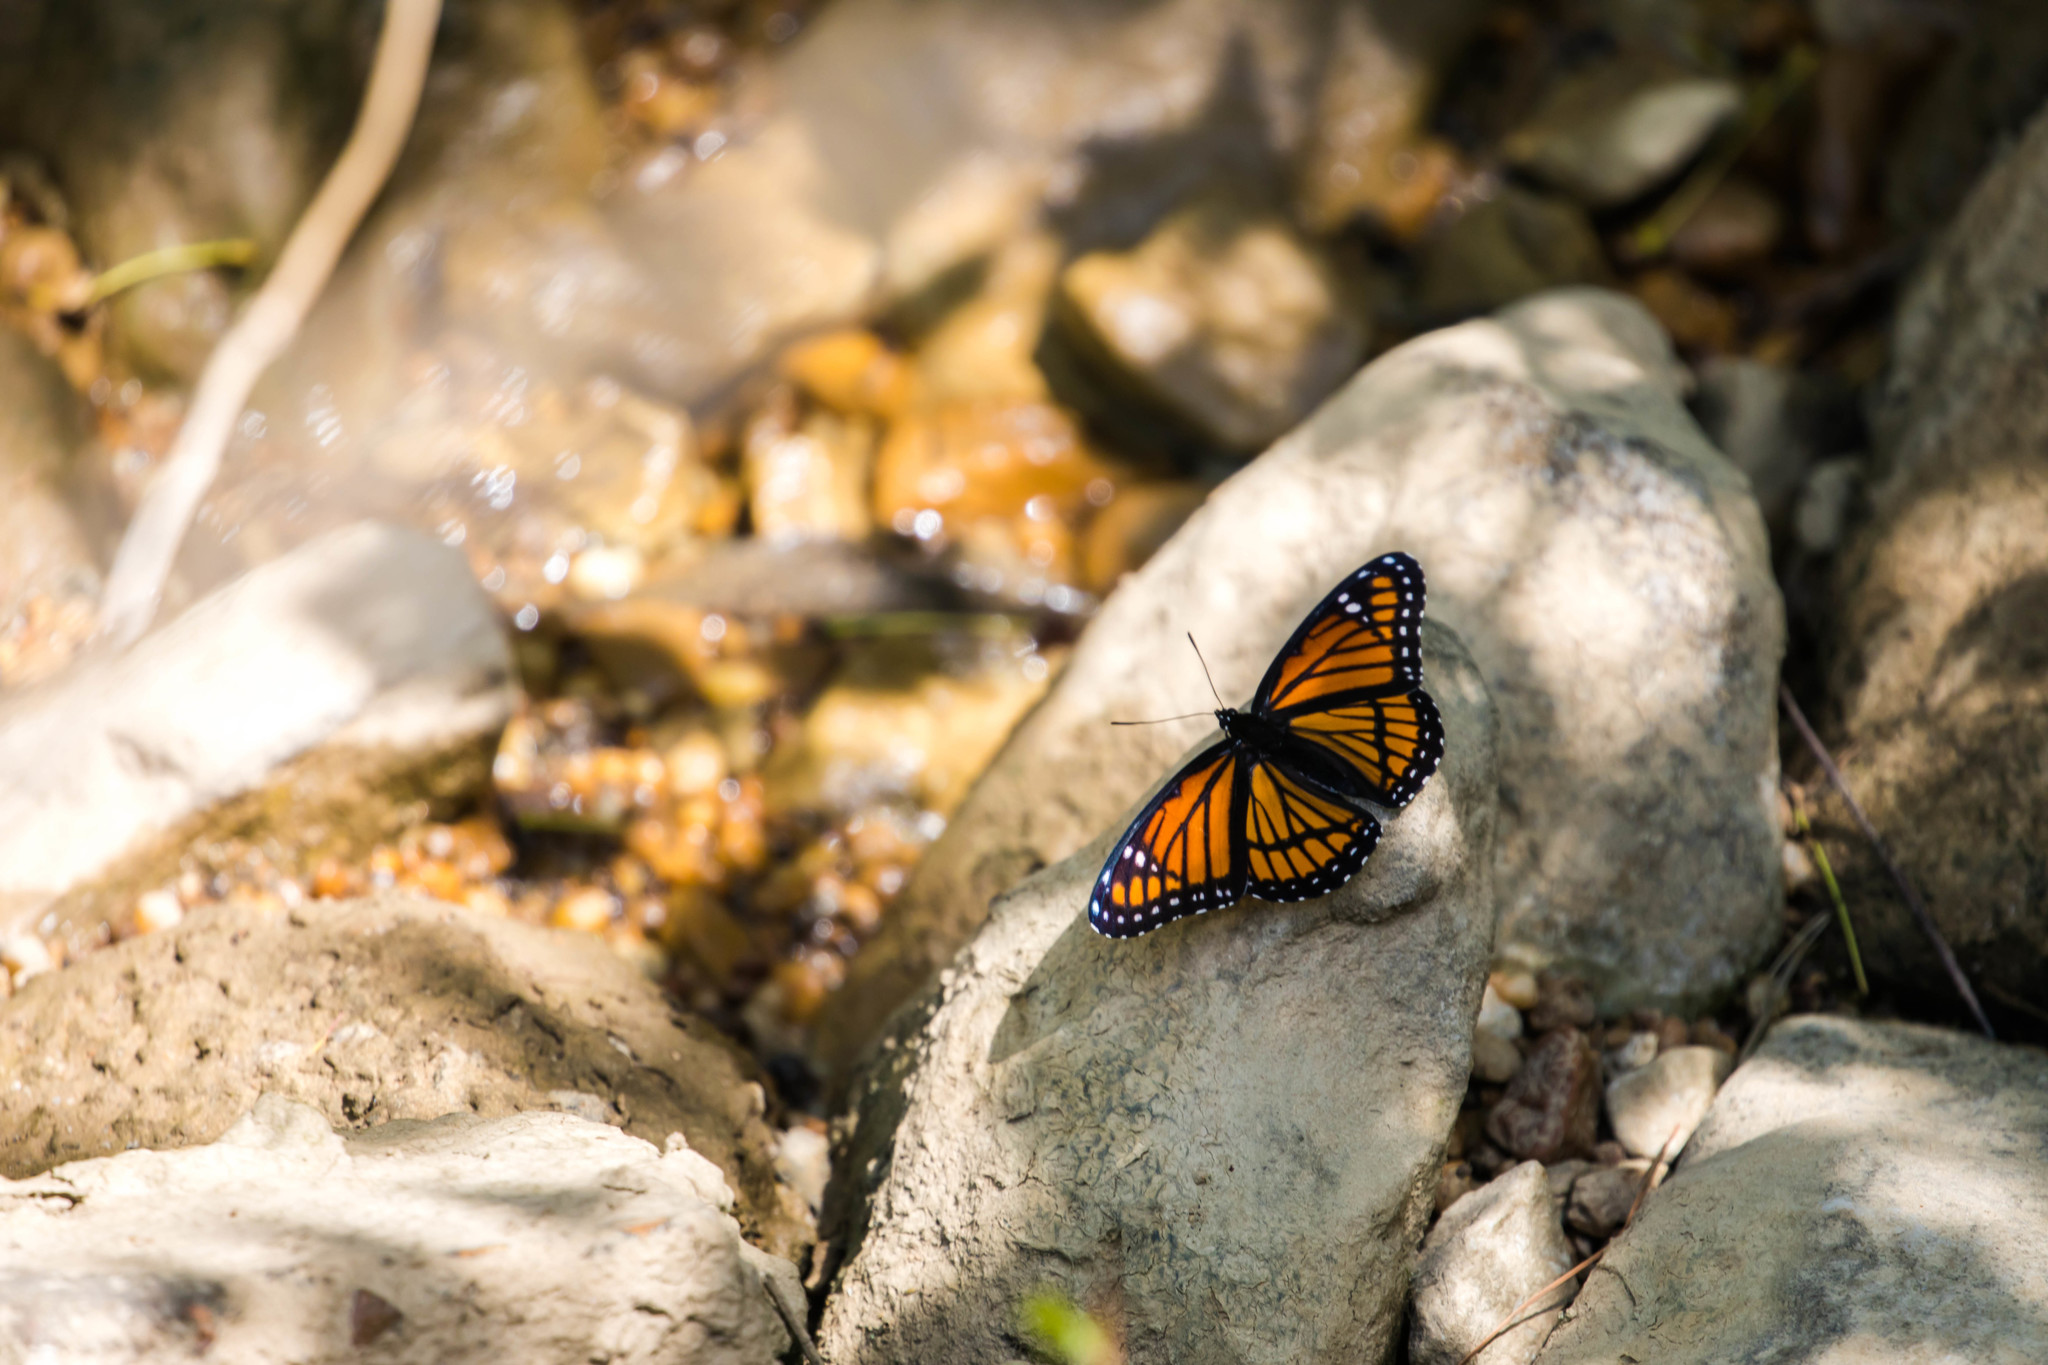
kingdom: Animalia
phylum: Arthropoda
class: Insecta
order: Lepidoptera
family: Nymphalidae
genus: Limenitis
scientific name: Limenitis archippus
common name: Viceroy
